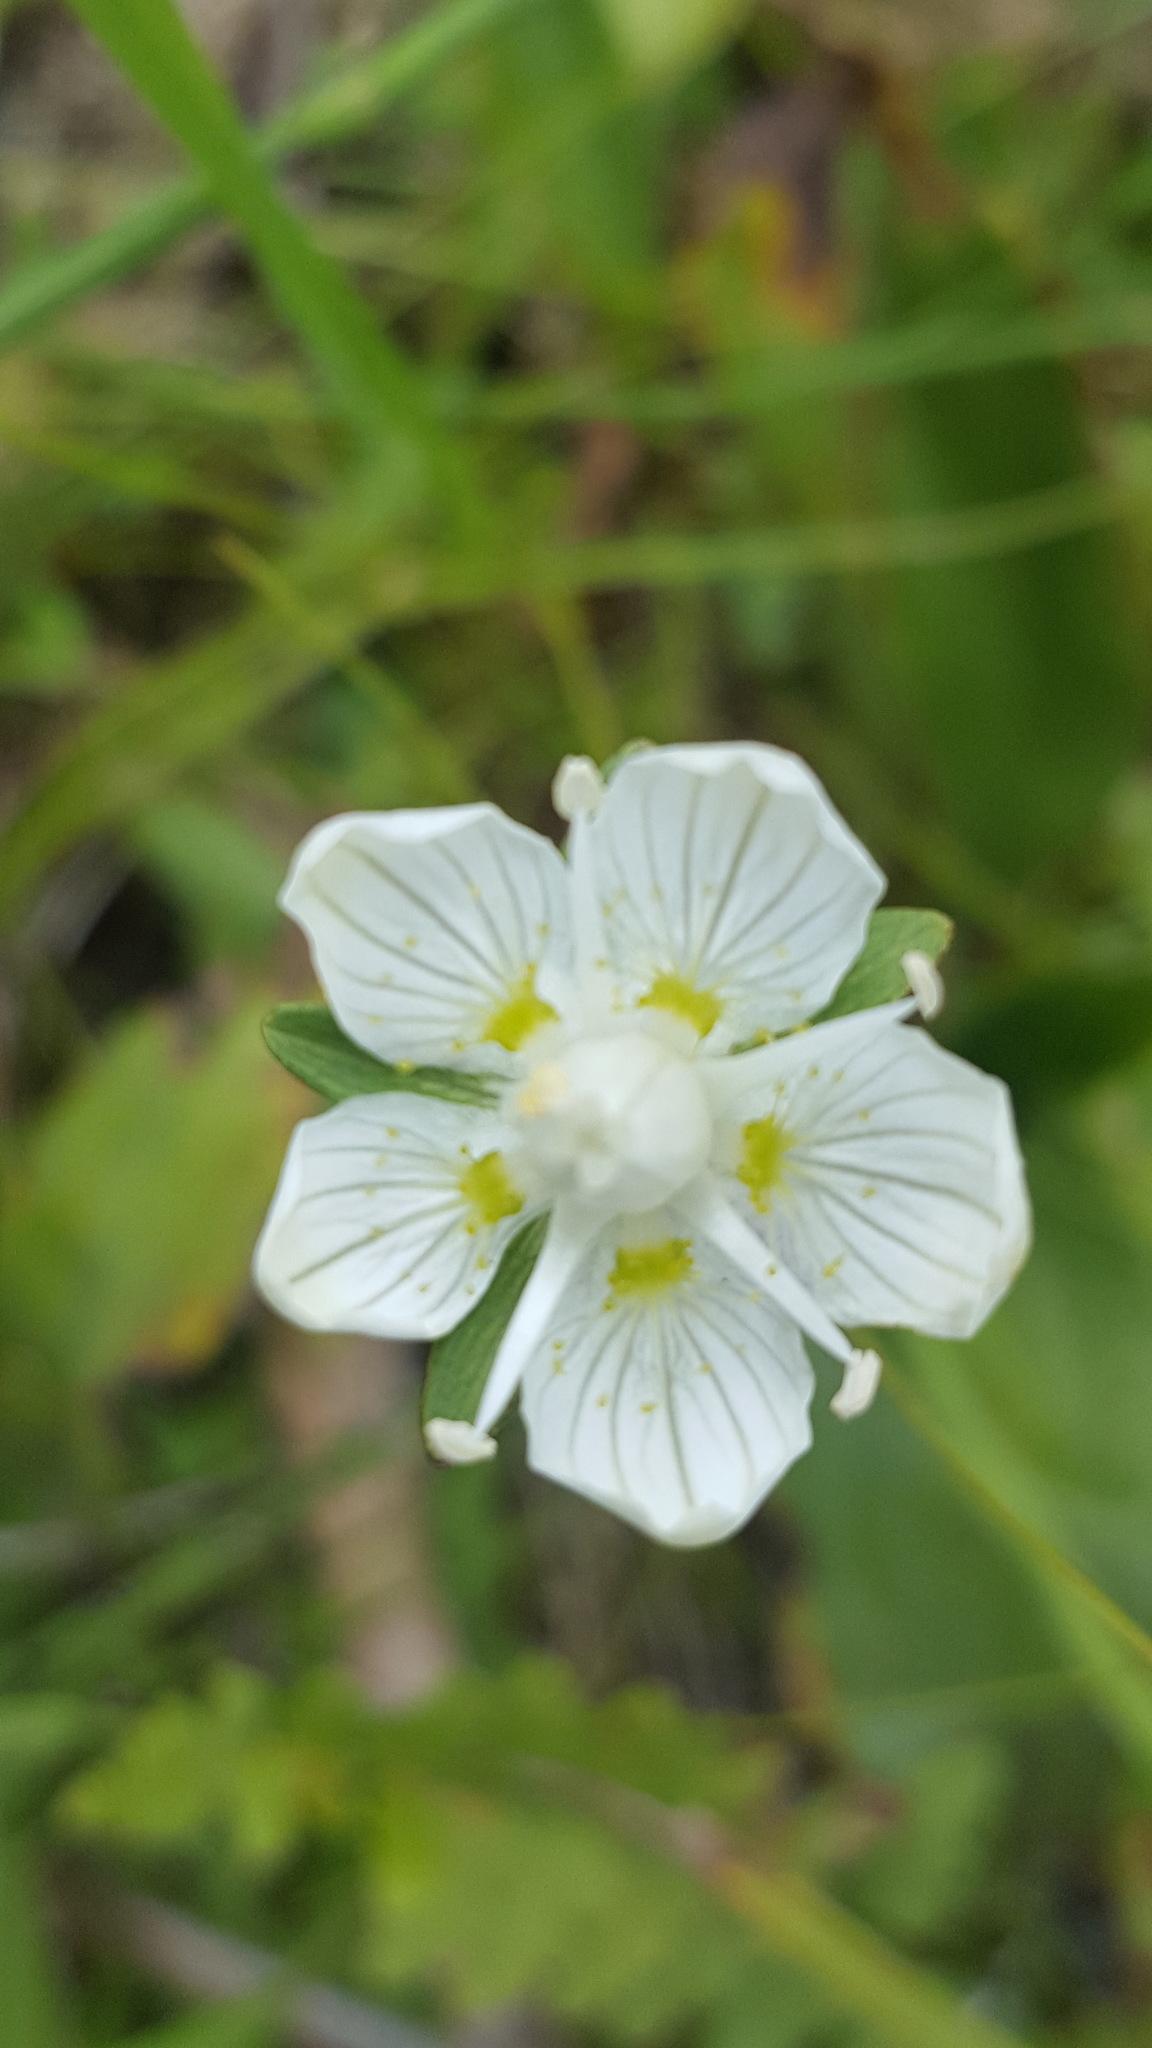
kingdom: Plantae
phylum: Tracheophyta
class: Magnoliopsida
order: Celastrales
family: Parnassiaceae
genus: Parnassia
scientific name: Parnassia palustris
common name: Grass-of-parnassus
